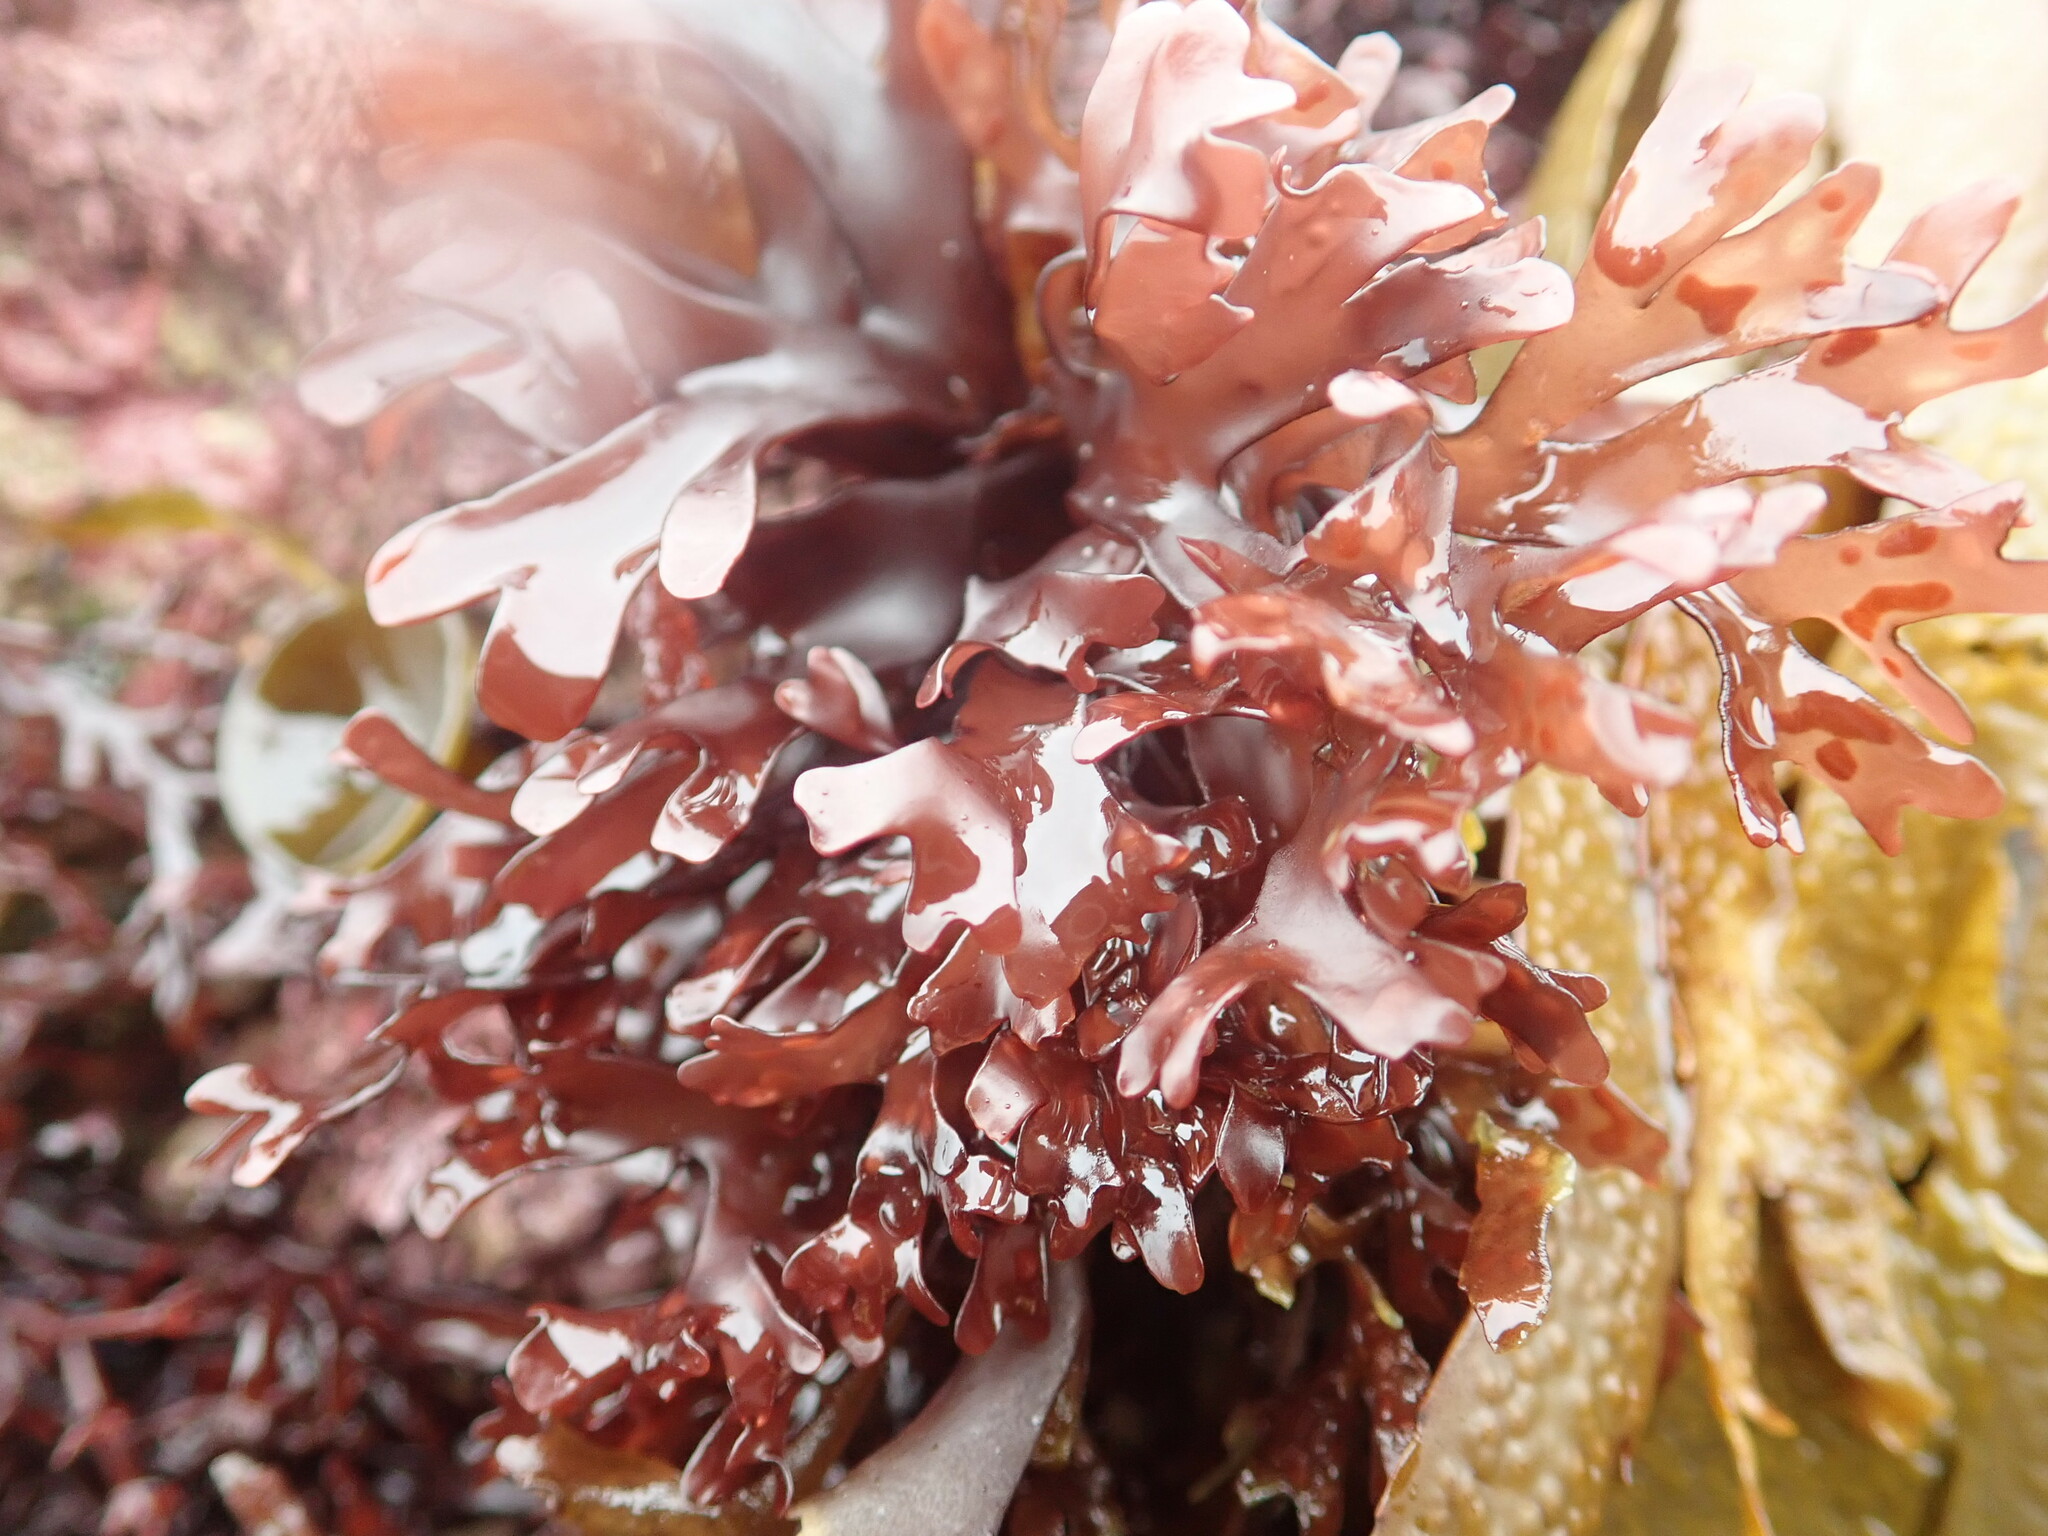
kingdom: Plantae
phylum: Rhodophyta
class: Florideophyceae
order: Gigartinales
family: Gigartinaceae
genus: Chondrus
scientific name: Chondrus crispus
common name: Carrageen
